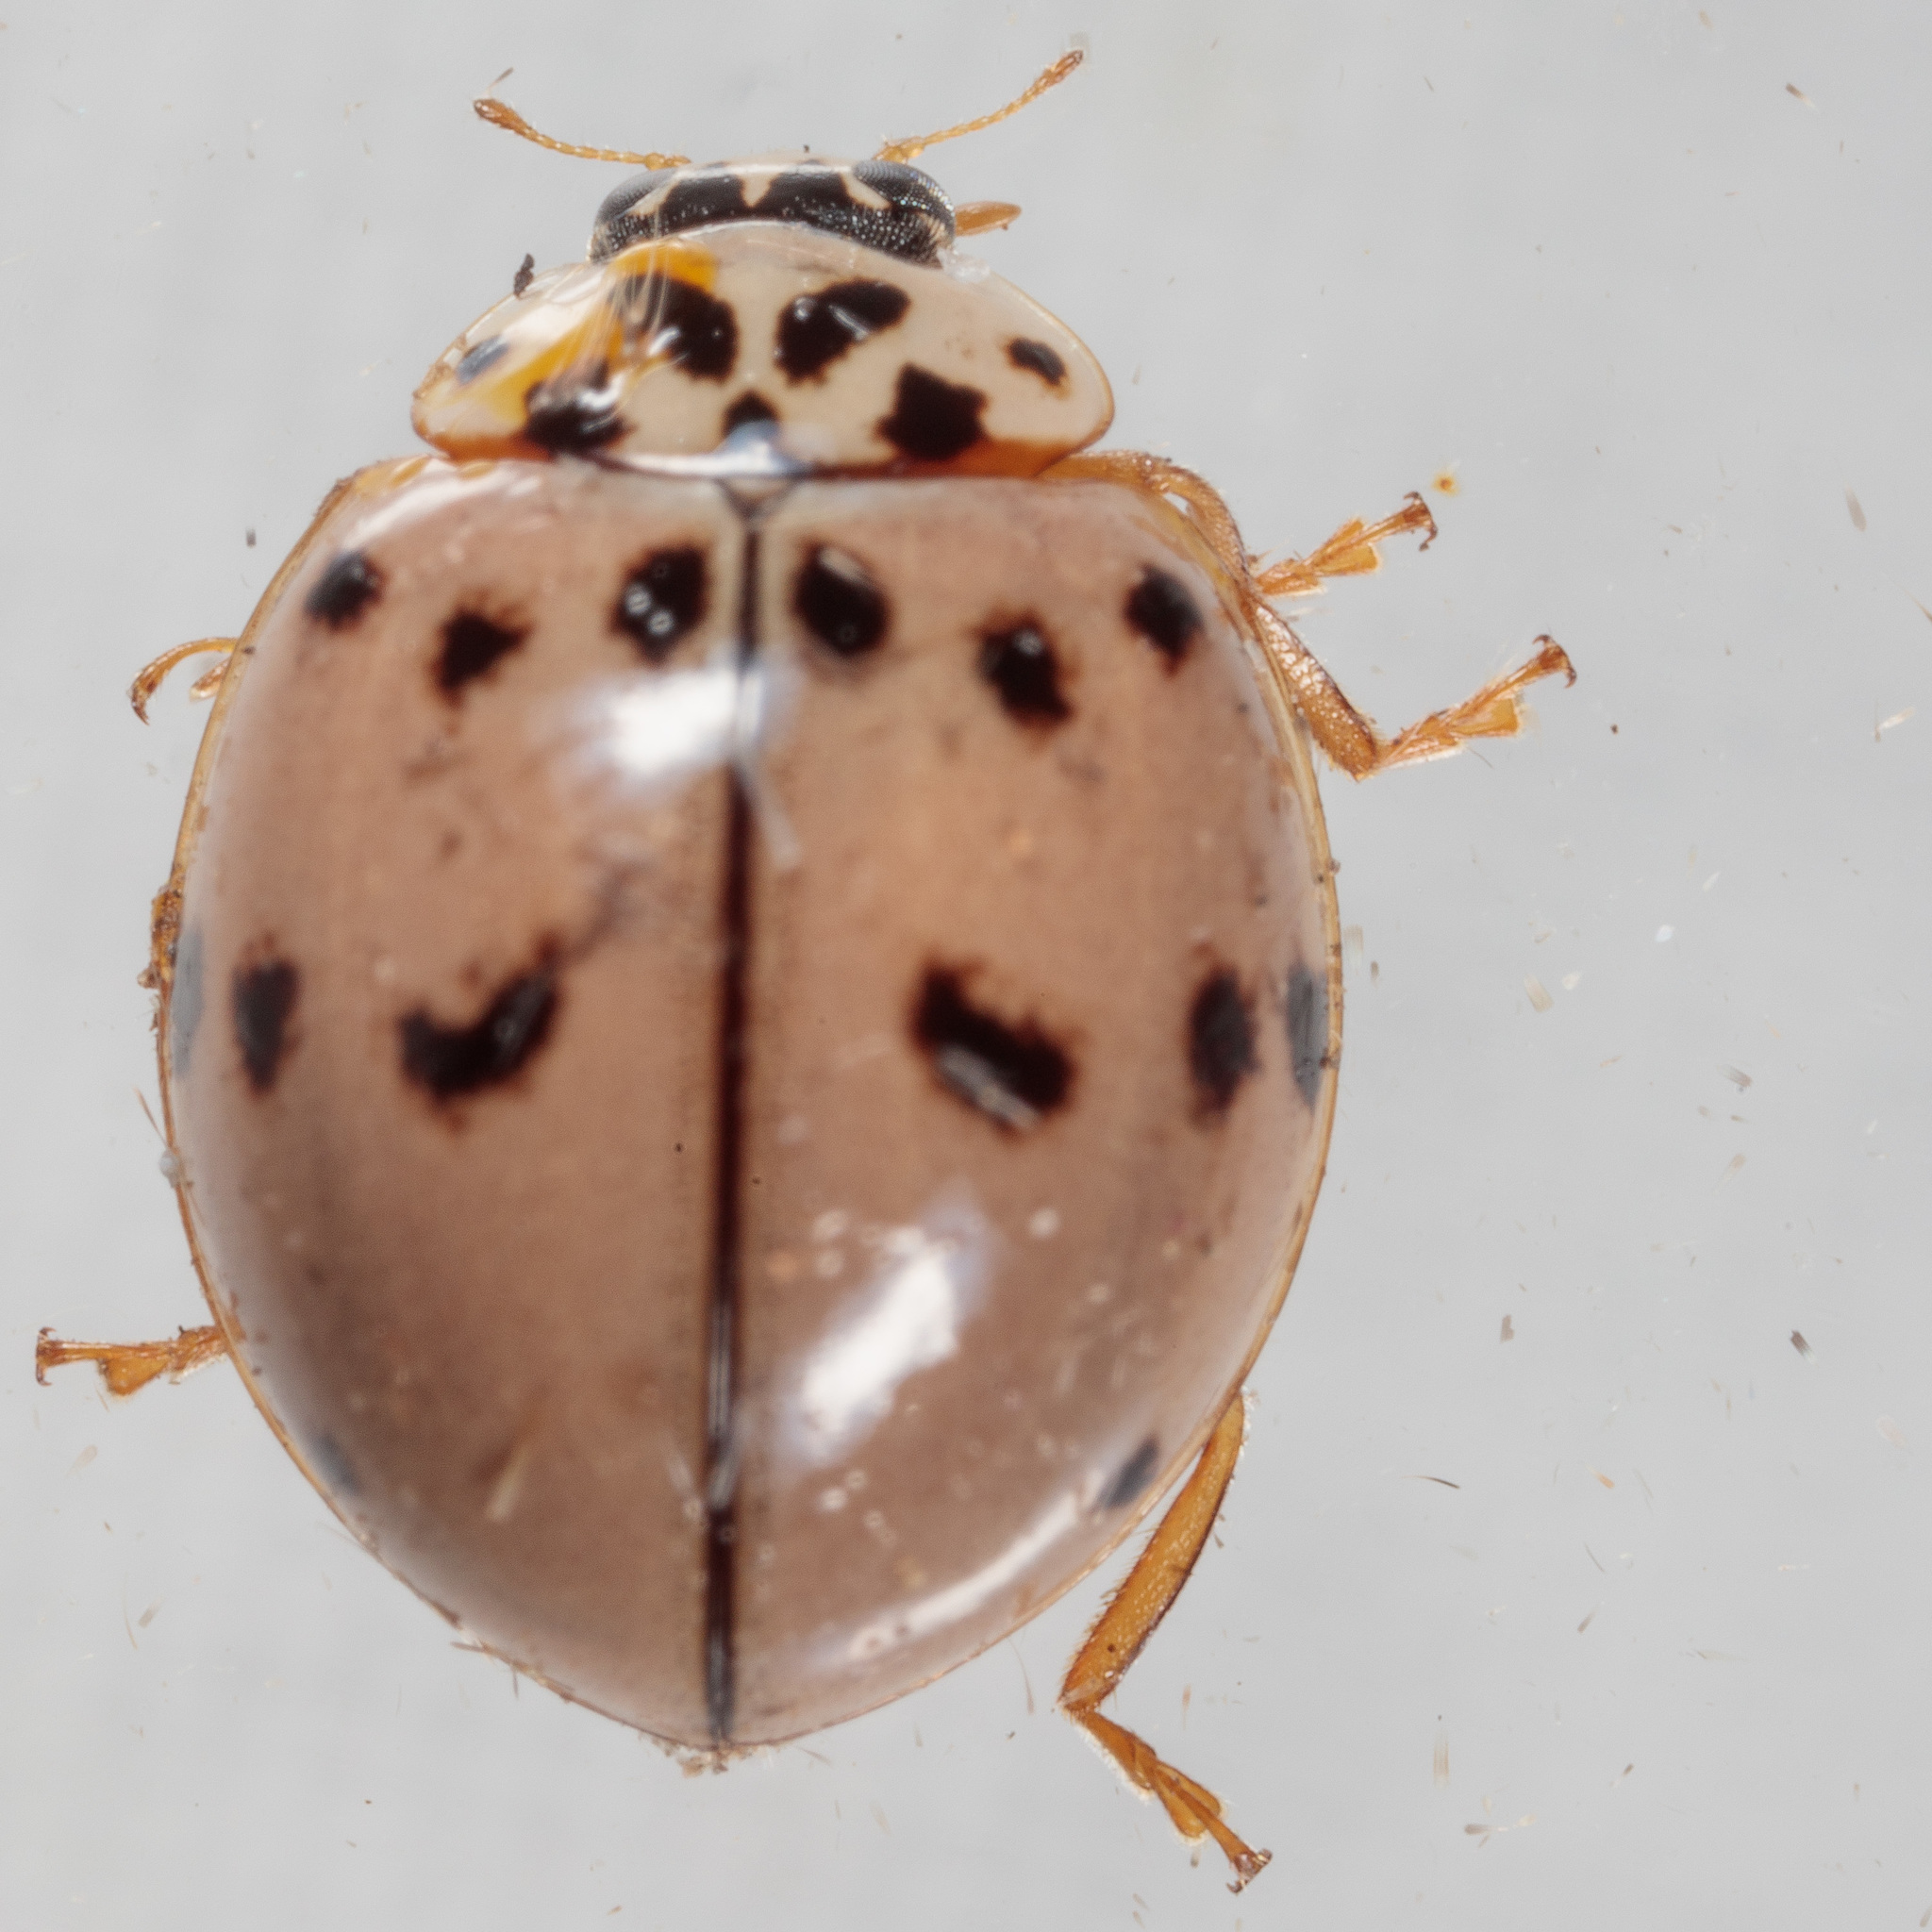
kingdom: Animalia
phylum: Arthropoda
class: Insecta
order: Coleoptera
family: Coccinellidae
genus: Olla
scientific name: Olla v-nigrum
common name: Ashy gray lady beetle
